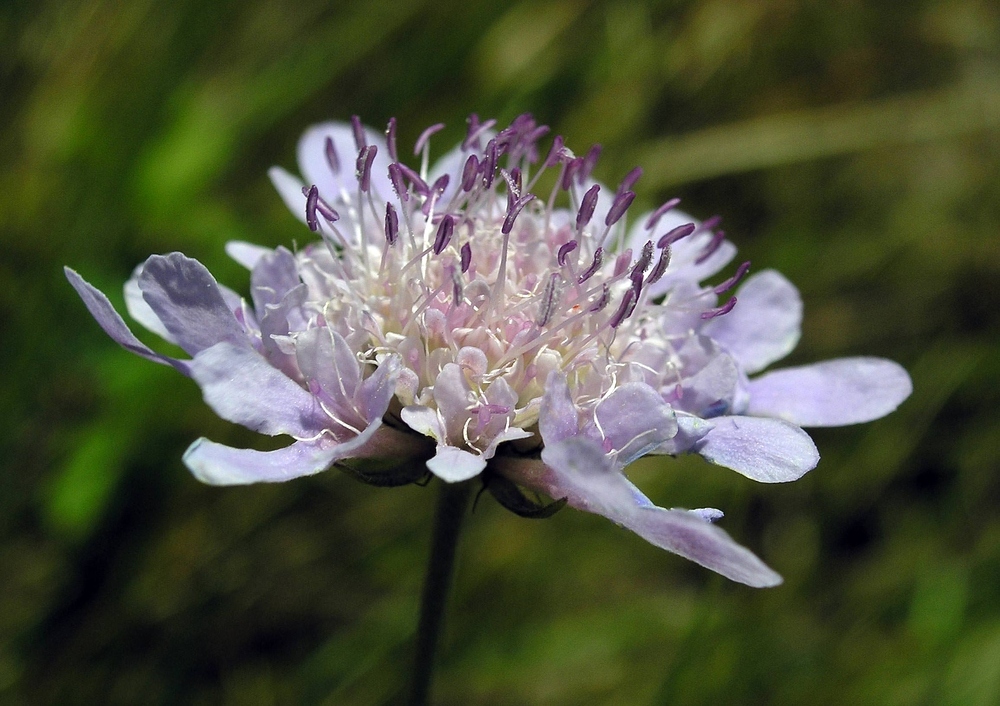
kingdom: Plantae
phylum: Tracheophyta
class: Magnoliopsida
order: Dipsacales
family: Caprifoliaceae
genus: Scabiosa
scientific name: Scabiosa columbaria
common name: Small scabious
